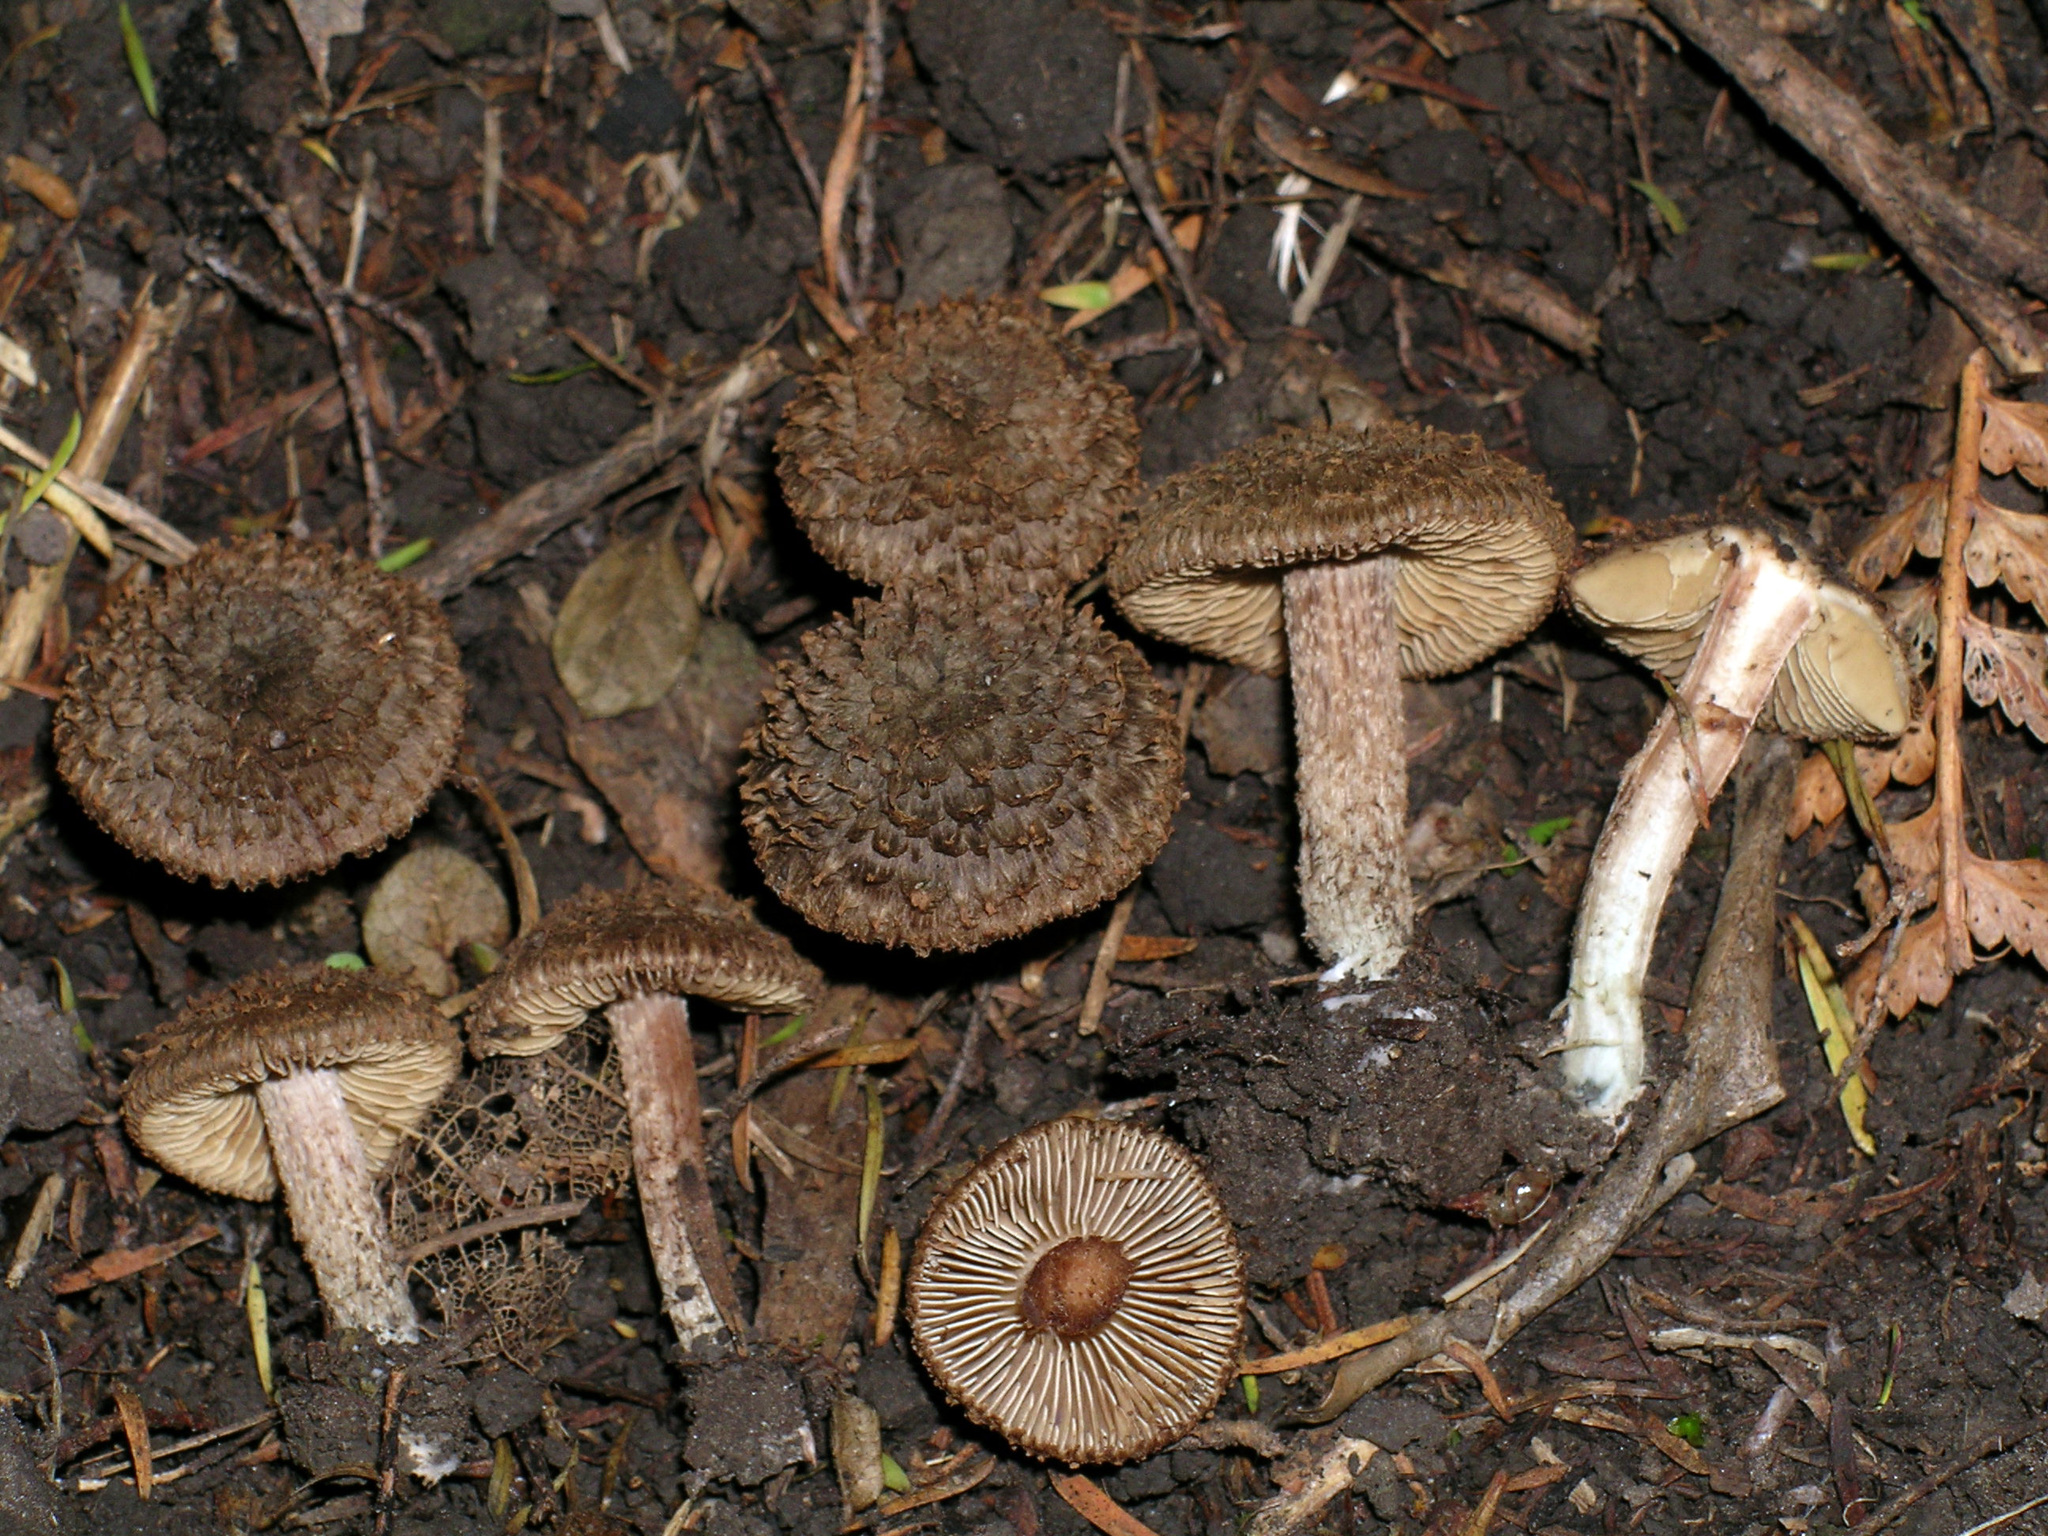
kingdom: Fungi
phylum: Basidiomycota
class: Agaricomycetes
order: Agaricales
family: Inocybaceae
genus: Inosperma
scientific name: Inosperma calamistratoides
